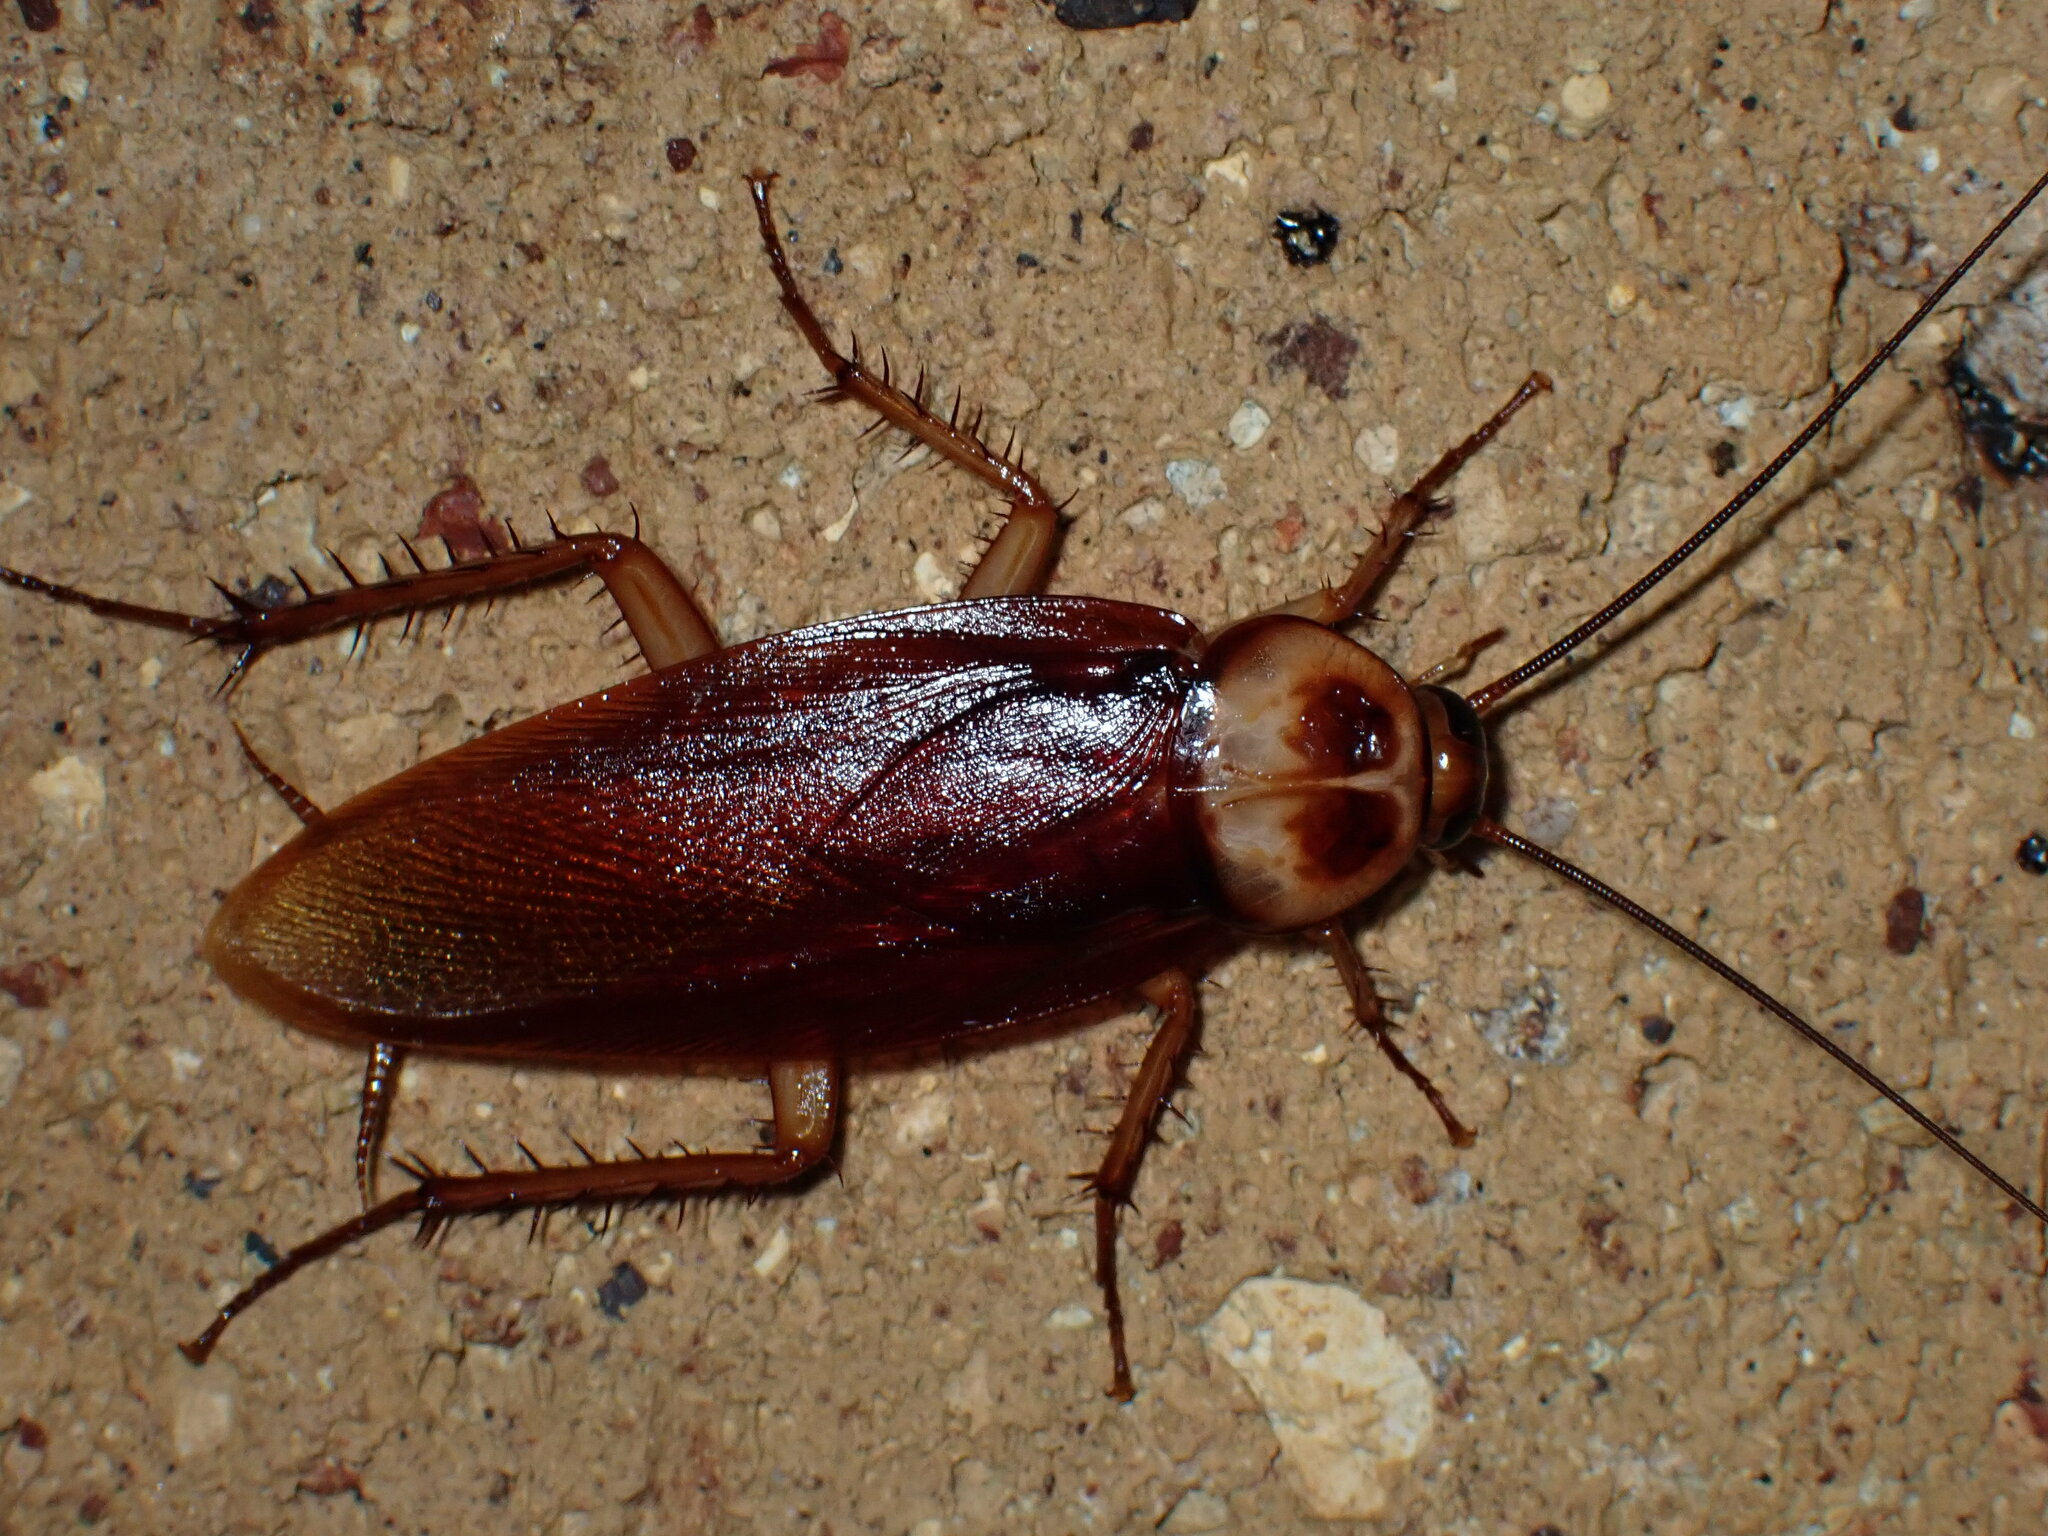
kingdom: Animalia
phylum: Arthropoda
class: Insecta
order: Blattodea
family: Blattidae
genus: Periplaneta
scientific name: Periplaneta americana
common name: American cockroach
